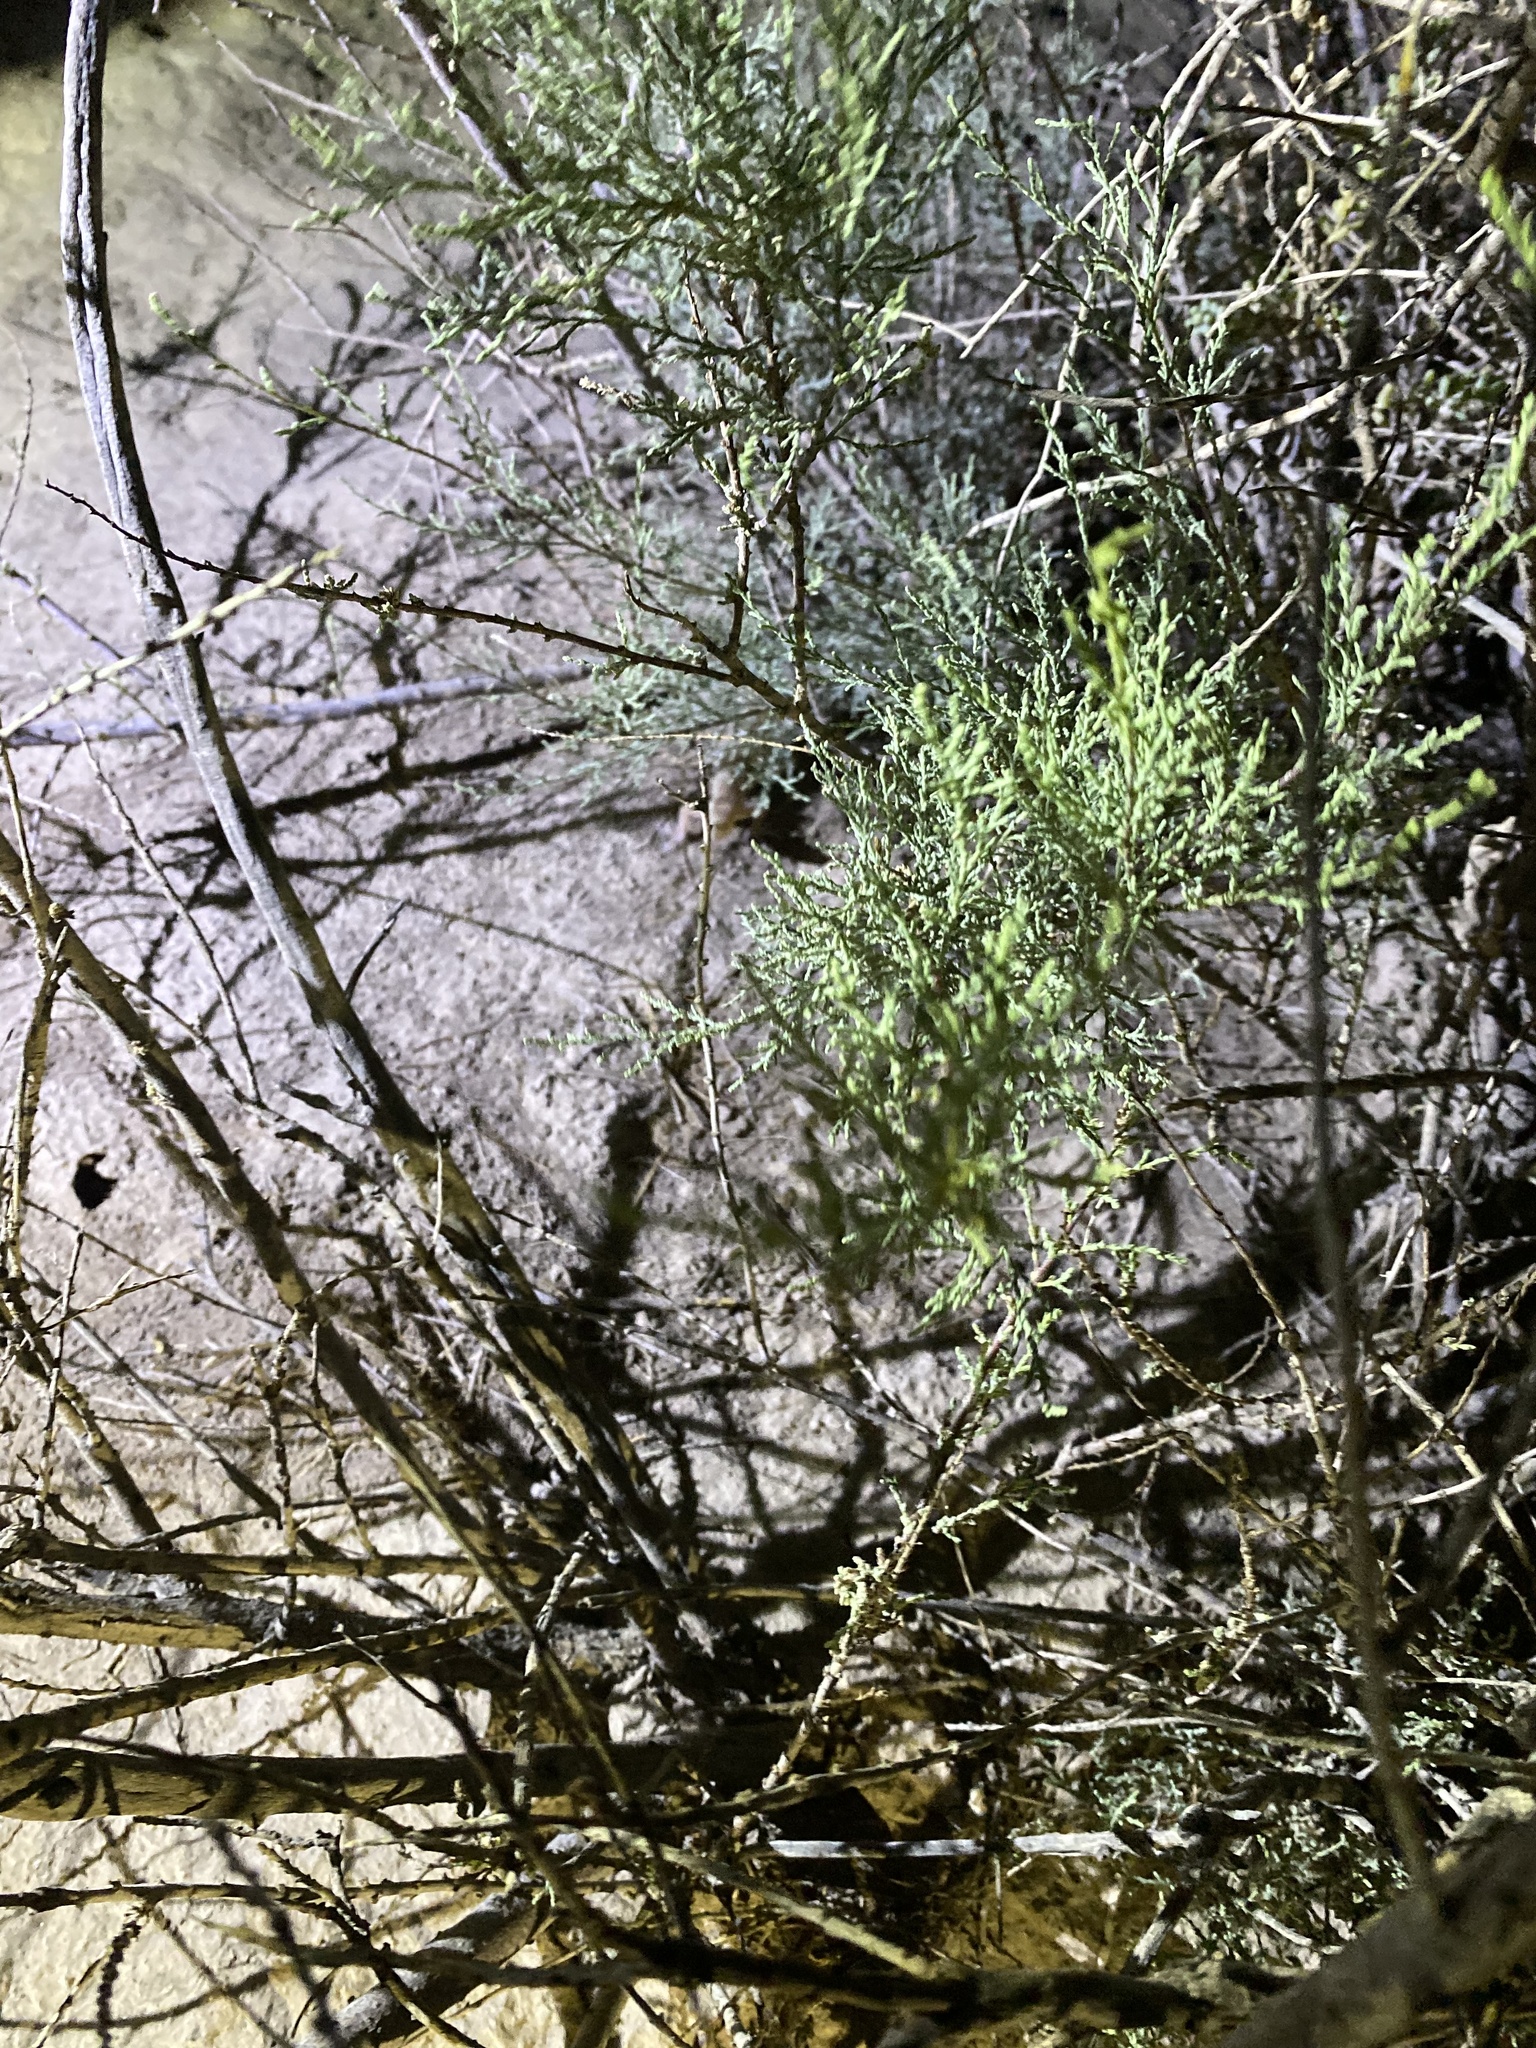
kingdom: Animalia
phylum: Chordata
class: Squamata
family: Sphaerodactylidae
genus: Teratoscincus
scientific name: Teratoscincus bedriagai
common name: Bedriaga's plate-tailed gecko
